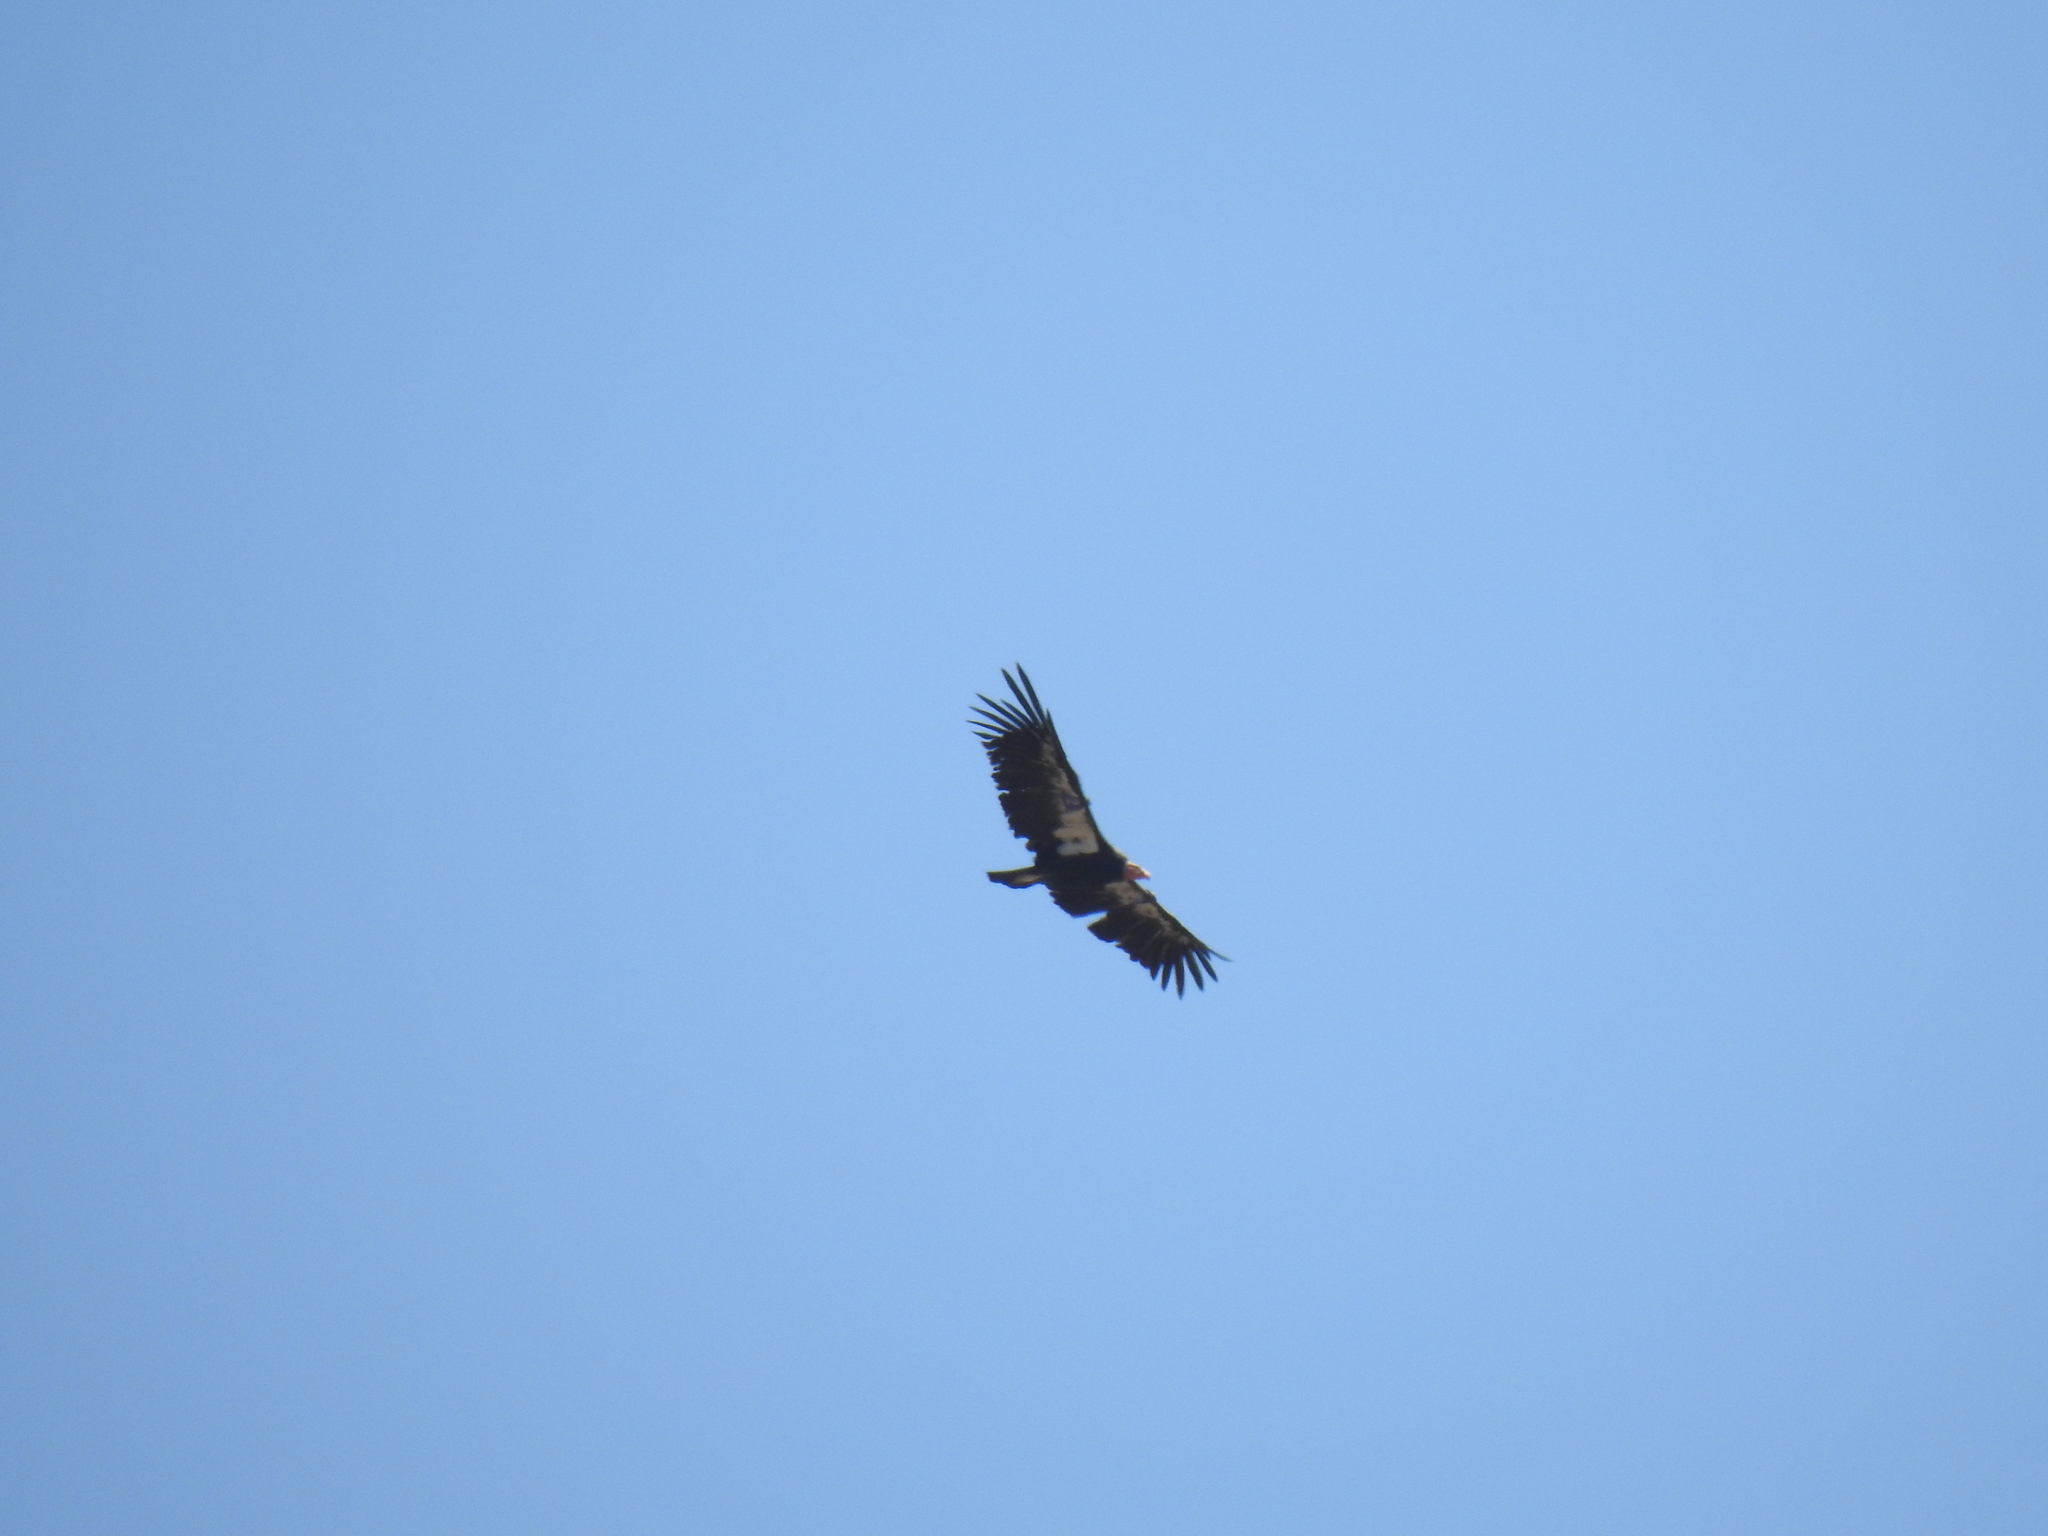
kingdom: Animalia
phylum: Chordata
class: Aves
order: Accipitriformes
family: Cathartidae
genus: Gymnogyps
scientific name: Gymnogyps californianus
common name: California condor
